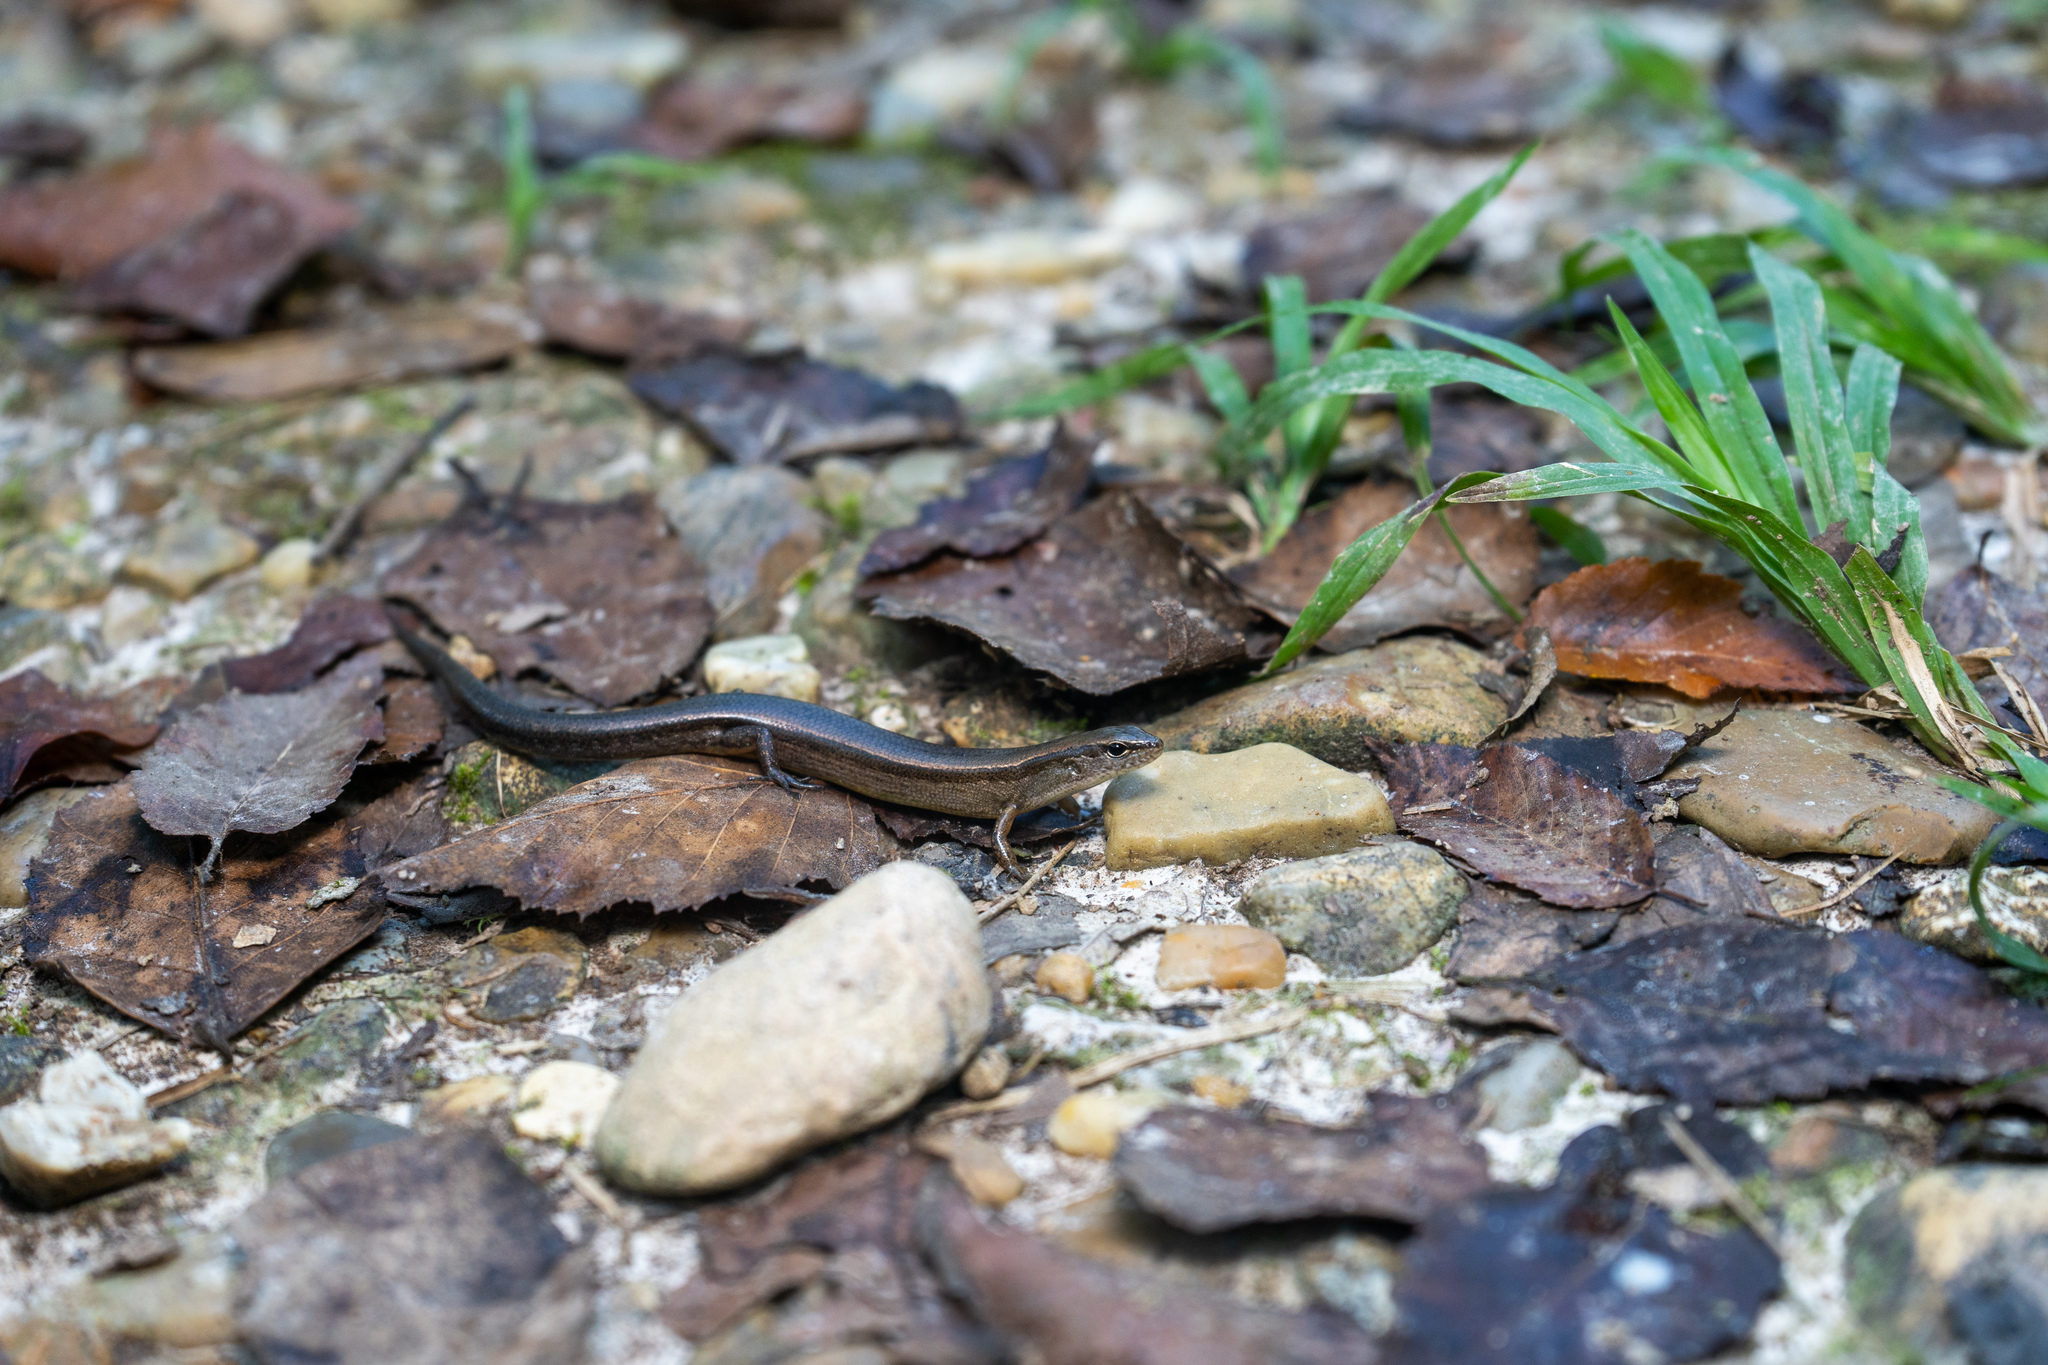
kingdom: Animalia
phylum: Chordata
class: Squamata
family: Scincidae
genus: Scincella
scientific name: Scincella lateralis
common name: Ground skink
